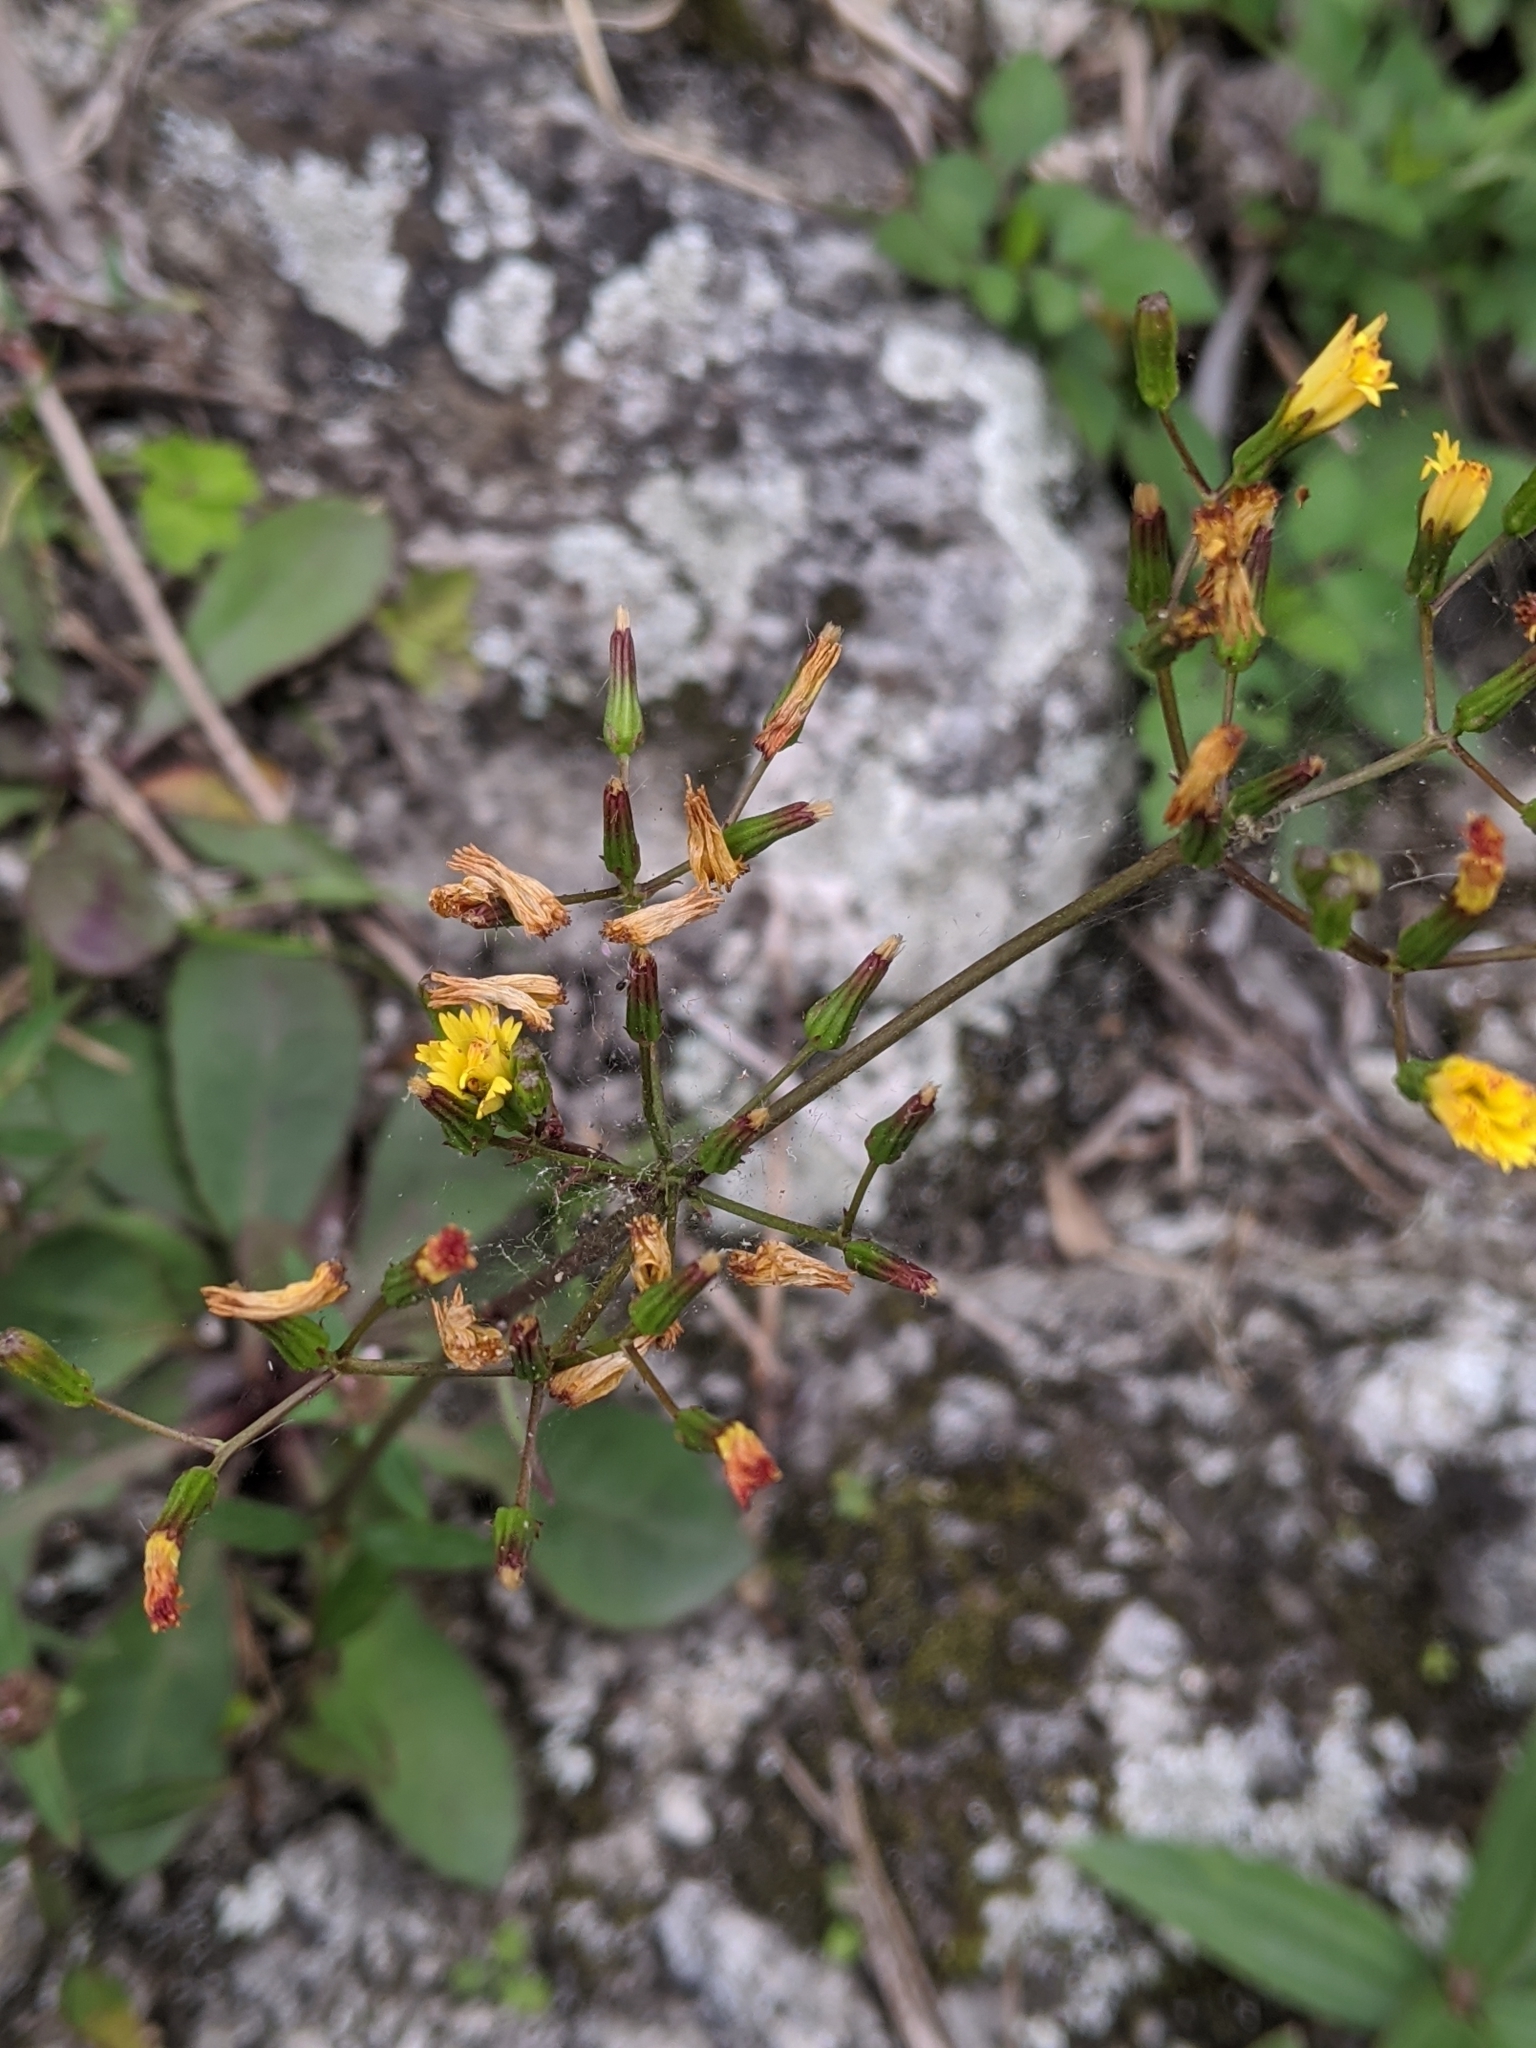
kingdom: Plantae
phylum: Tracheophyta
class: Magnoliopsida
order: Asterales
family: Asteraceae
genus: Ixeridium
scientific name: Ixeridium laevigatum
